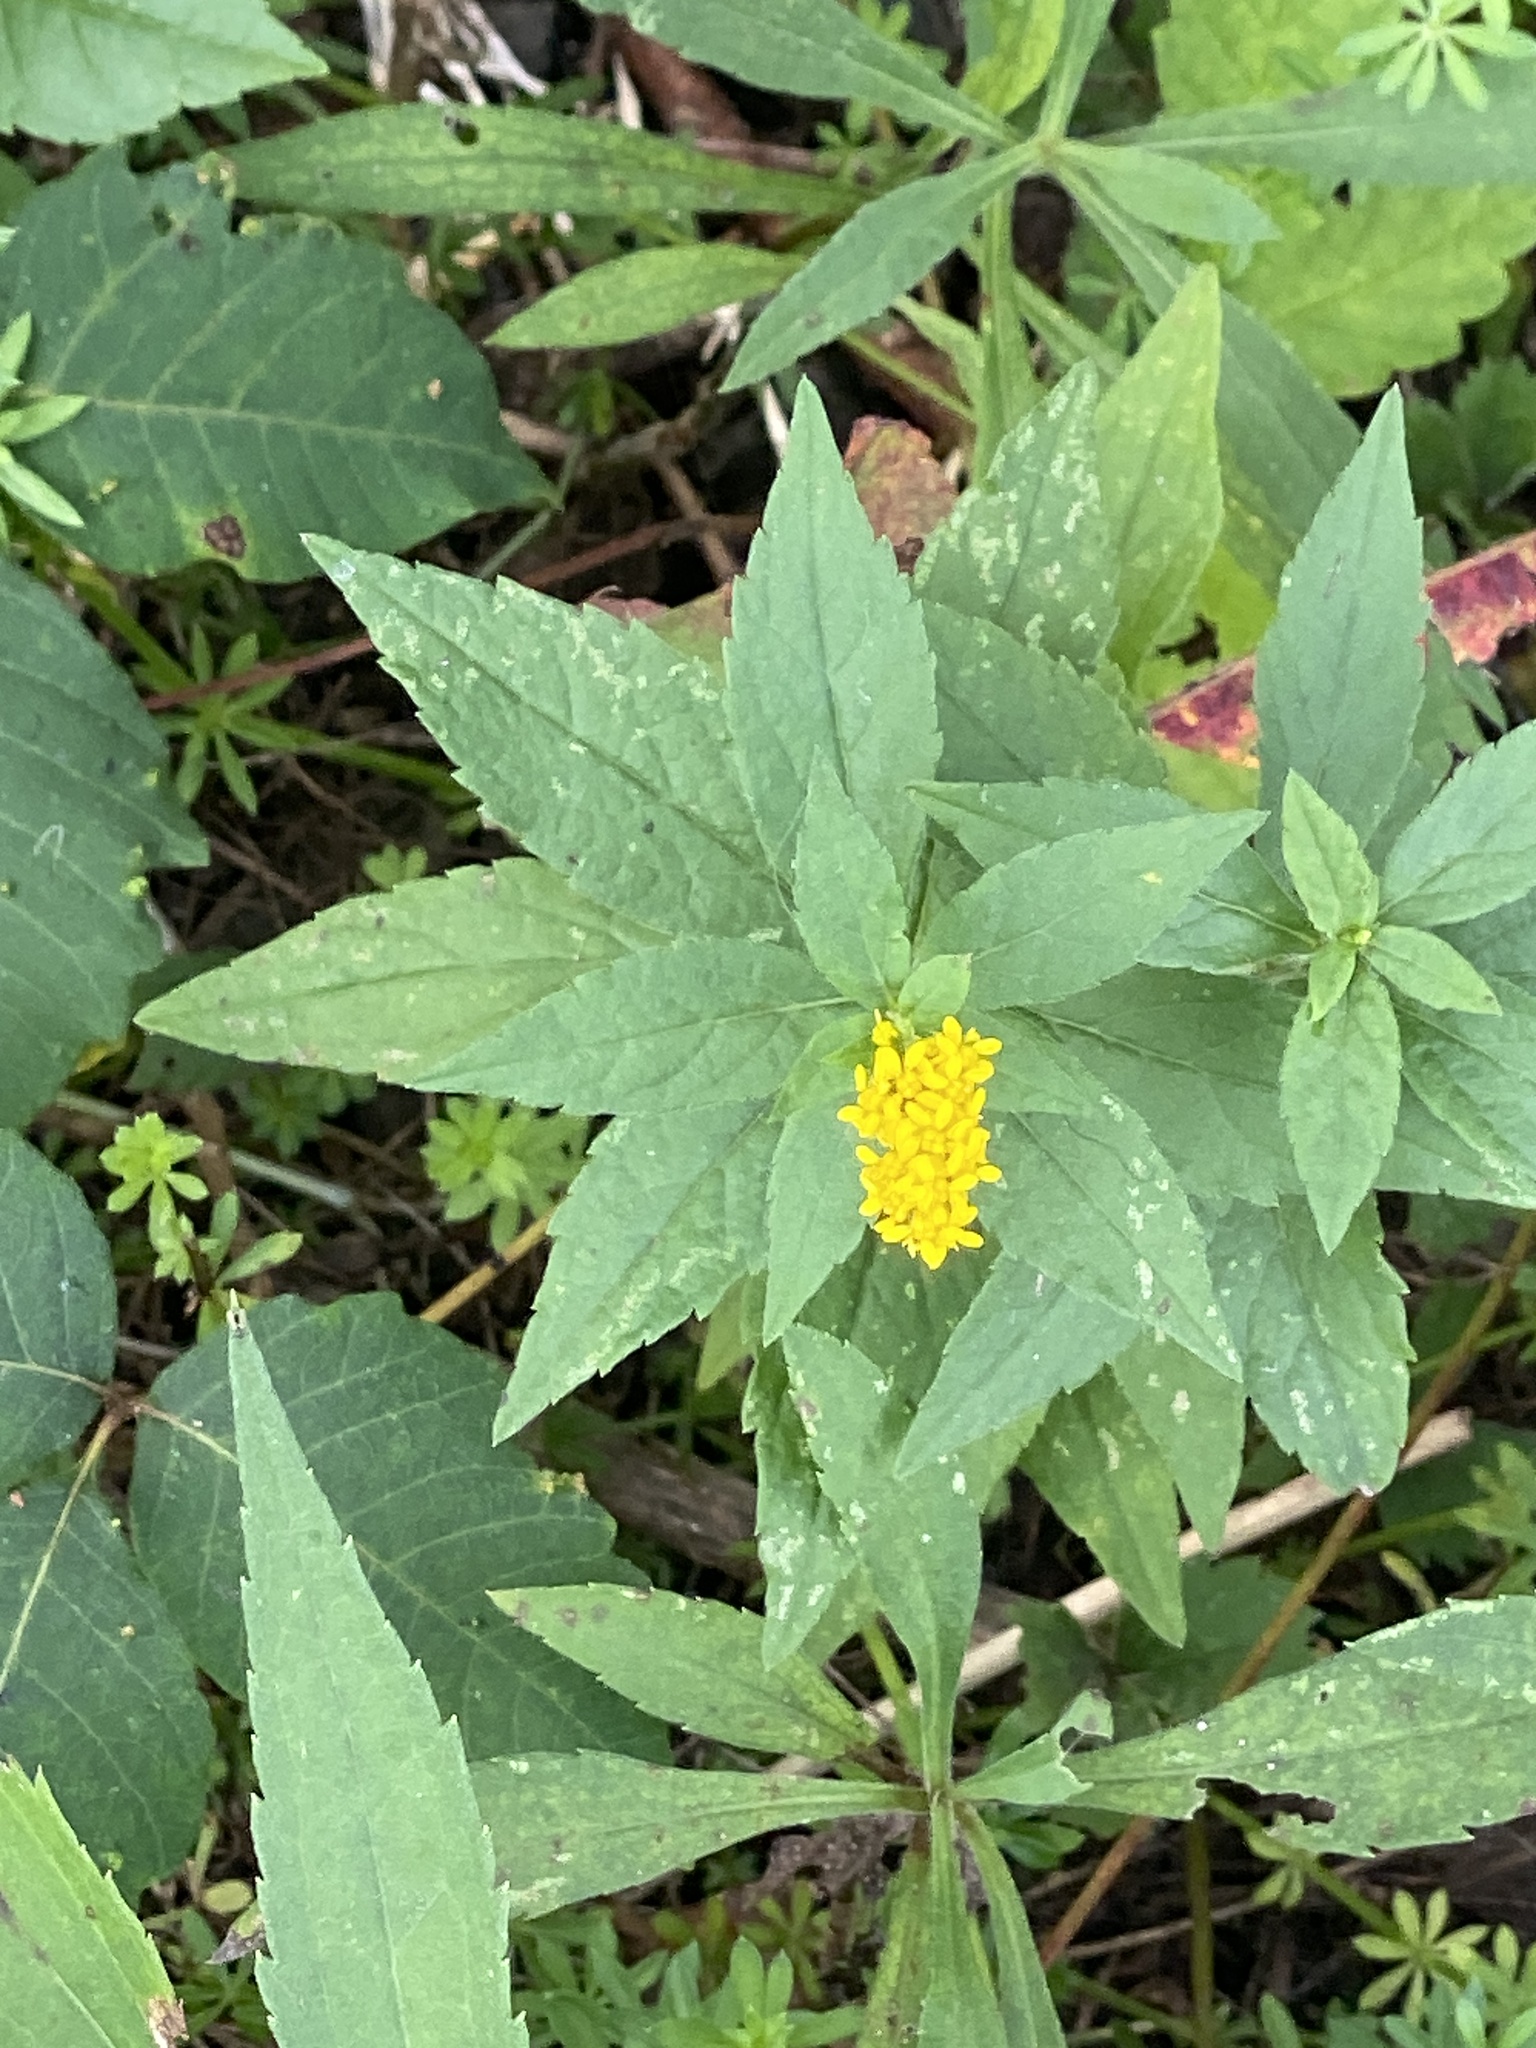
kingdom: Plantae
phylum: Tracheophyta
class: Magnoliopsida
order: Asterales
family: Asteraceae
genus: Solidago
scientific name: Solidago rugosa
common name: Rough-stemmed goldenrod
